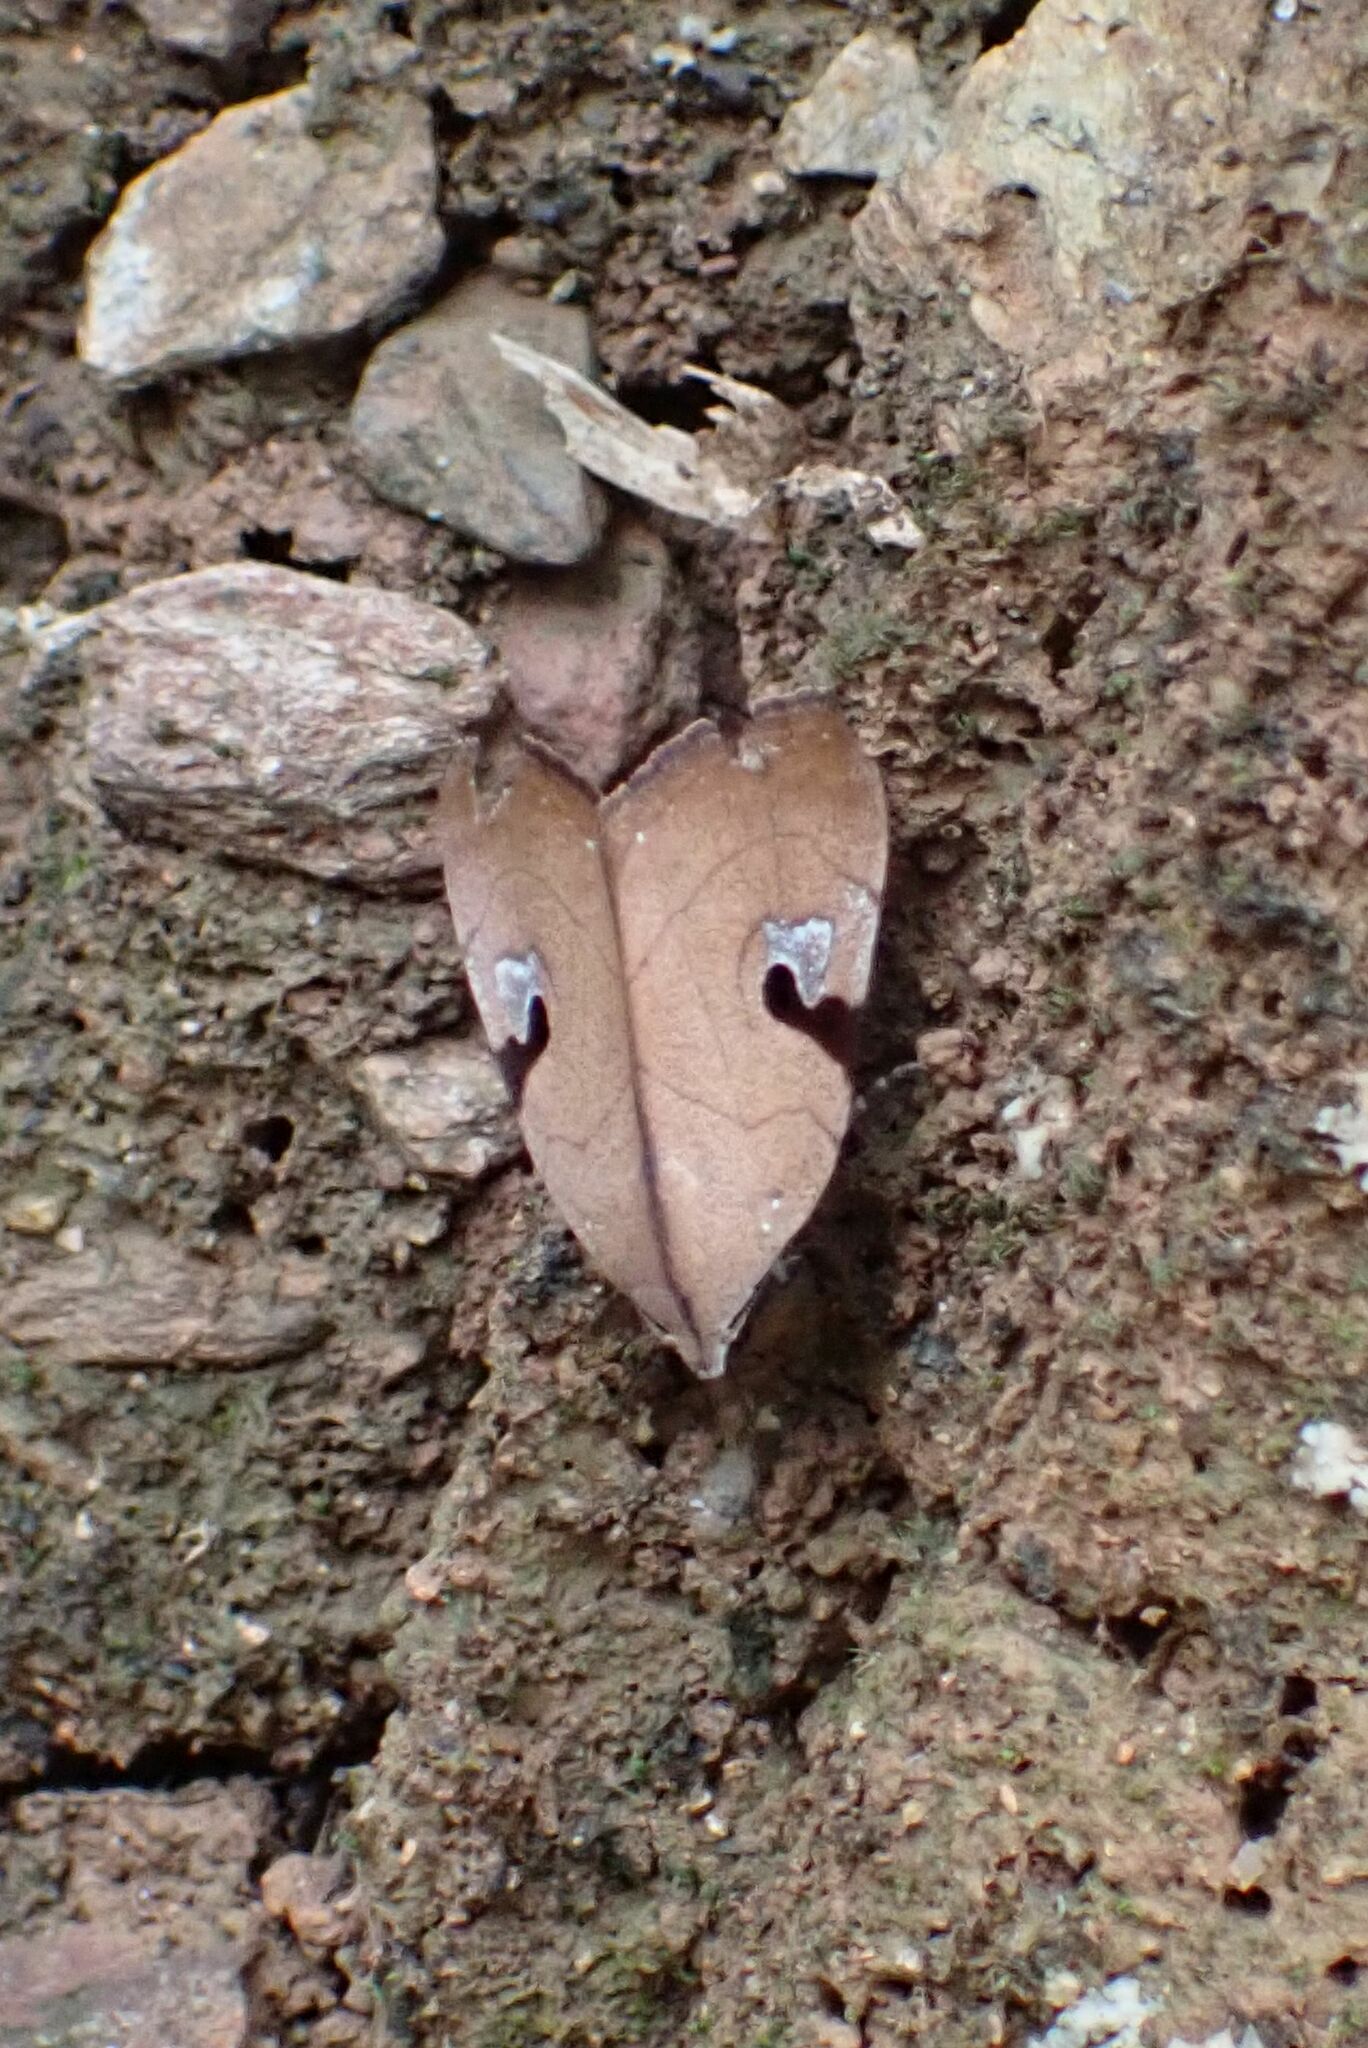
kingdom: Animalia
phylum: Arthropoda
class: Insecta
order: Lepidoptera
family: Erebidae
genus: Oglasa
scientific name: Oglasa nana
